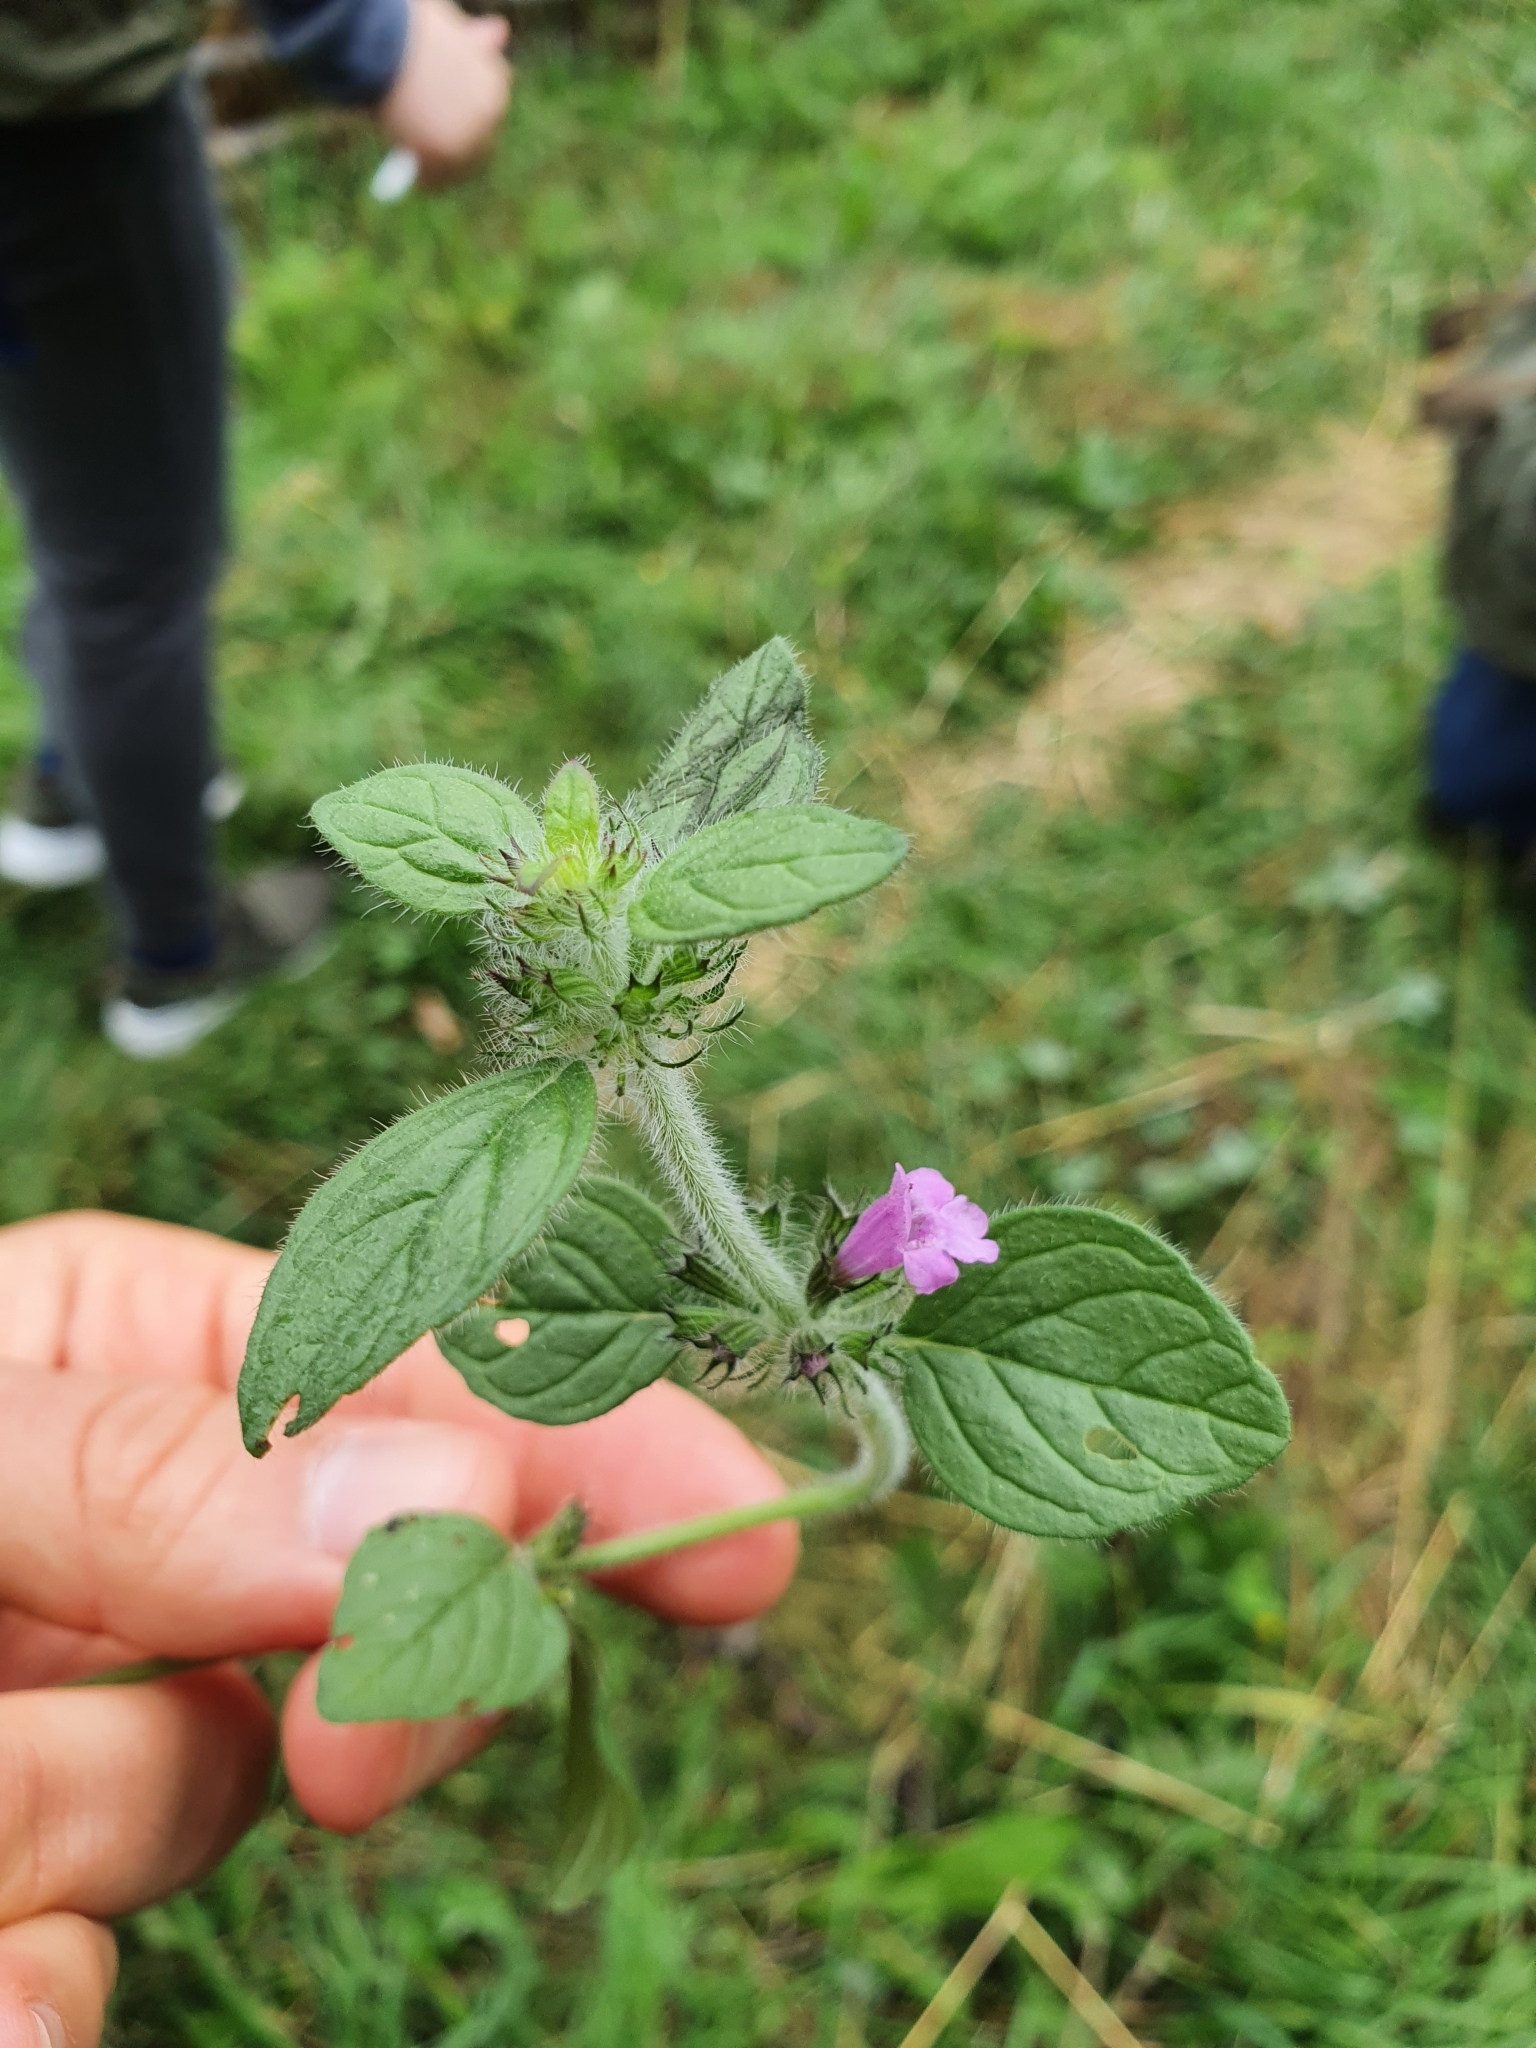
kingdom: Plantae
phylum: Tracheophyta
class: Magnoliopsida
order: Lamiales
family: Lamiaceae
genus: Clinopodium
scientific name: Clinopodium vulgare
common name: Wild basil
